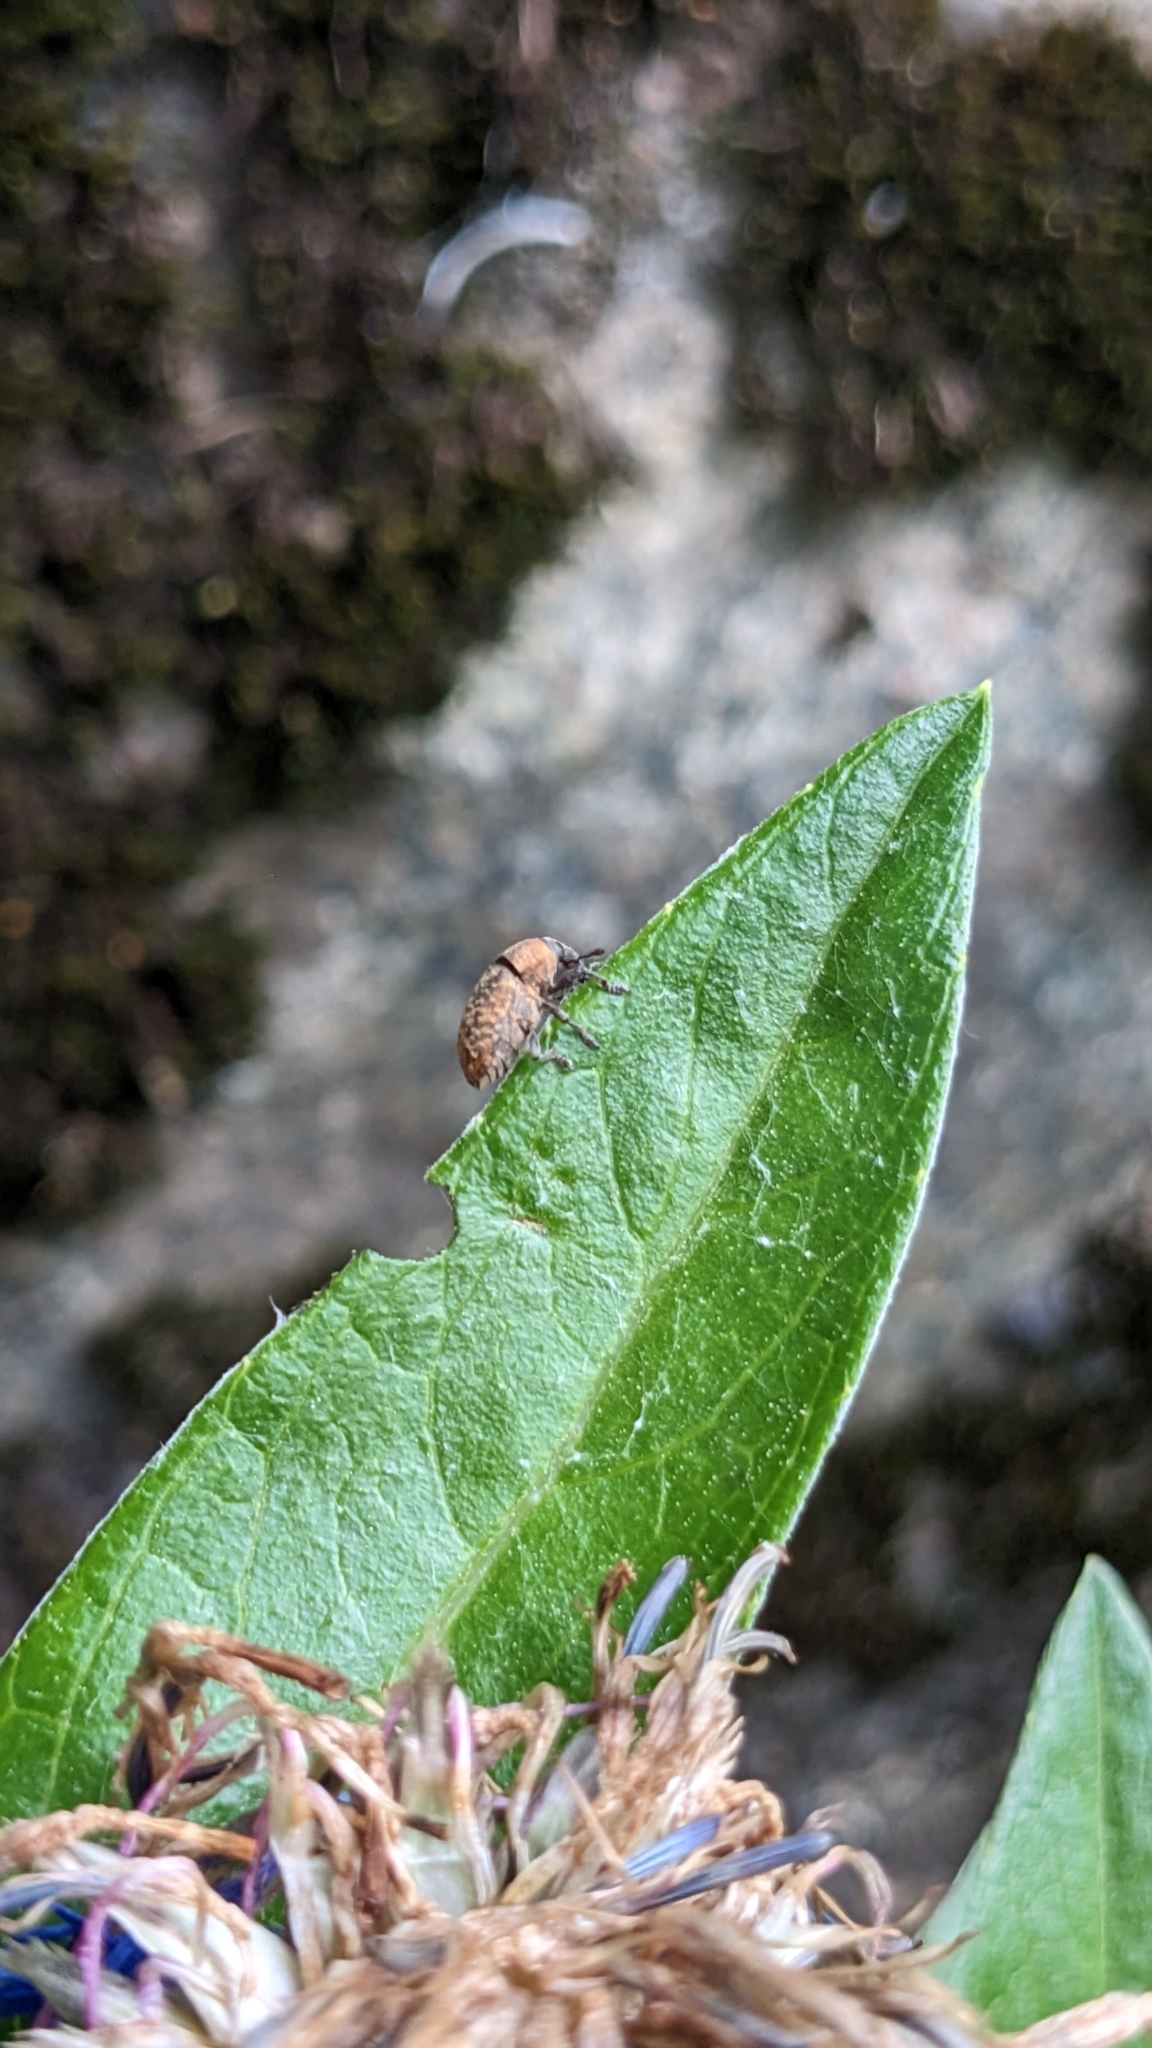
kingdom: Animalia
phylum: Arthropoda
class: Insecta
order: Coleoptera
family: Curculionidae
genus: Larinus
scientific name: Larinus obtusus
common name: Weevil
